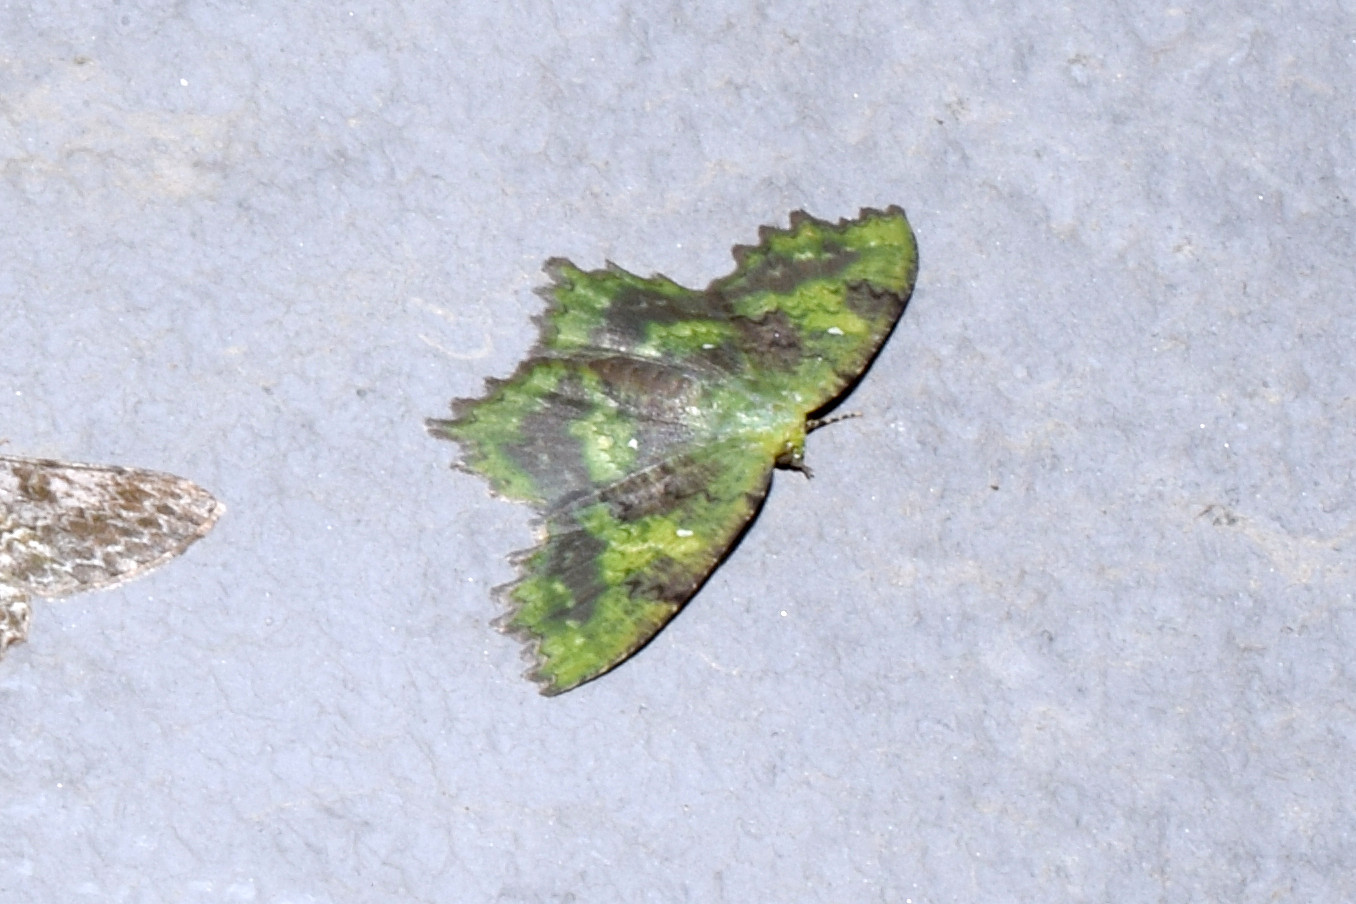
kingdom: Animalia
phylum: Arthropoda
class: Insecta
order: Lepidoptera
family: Geometridae
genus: Paramaxates
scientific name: Paramaxates polygrapharia
